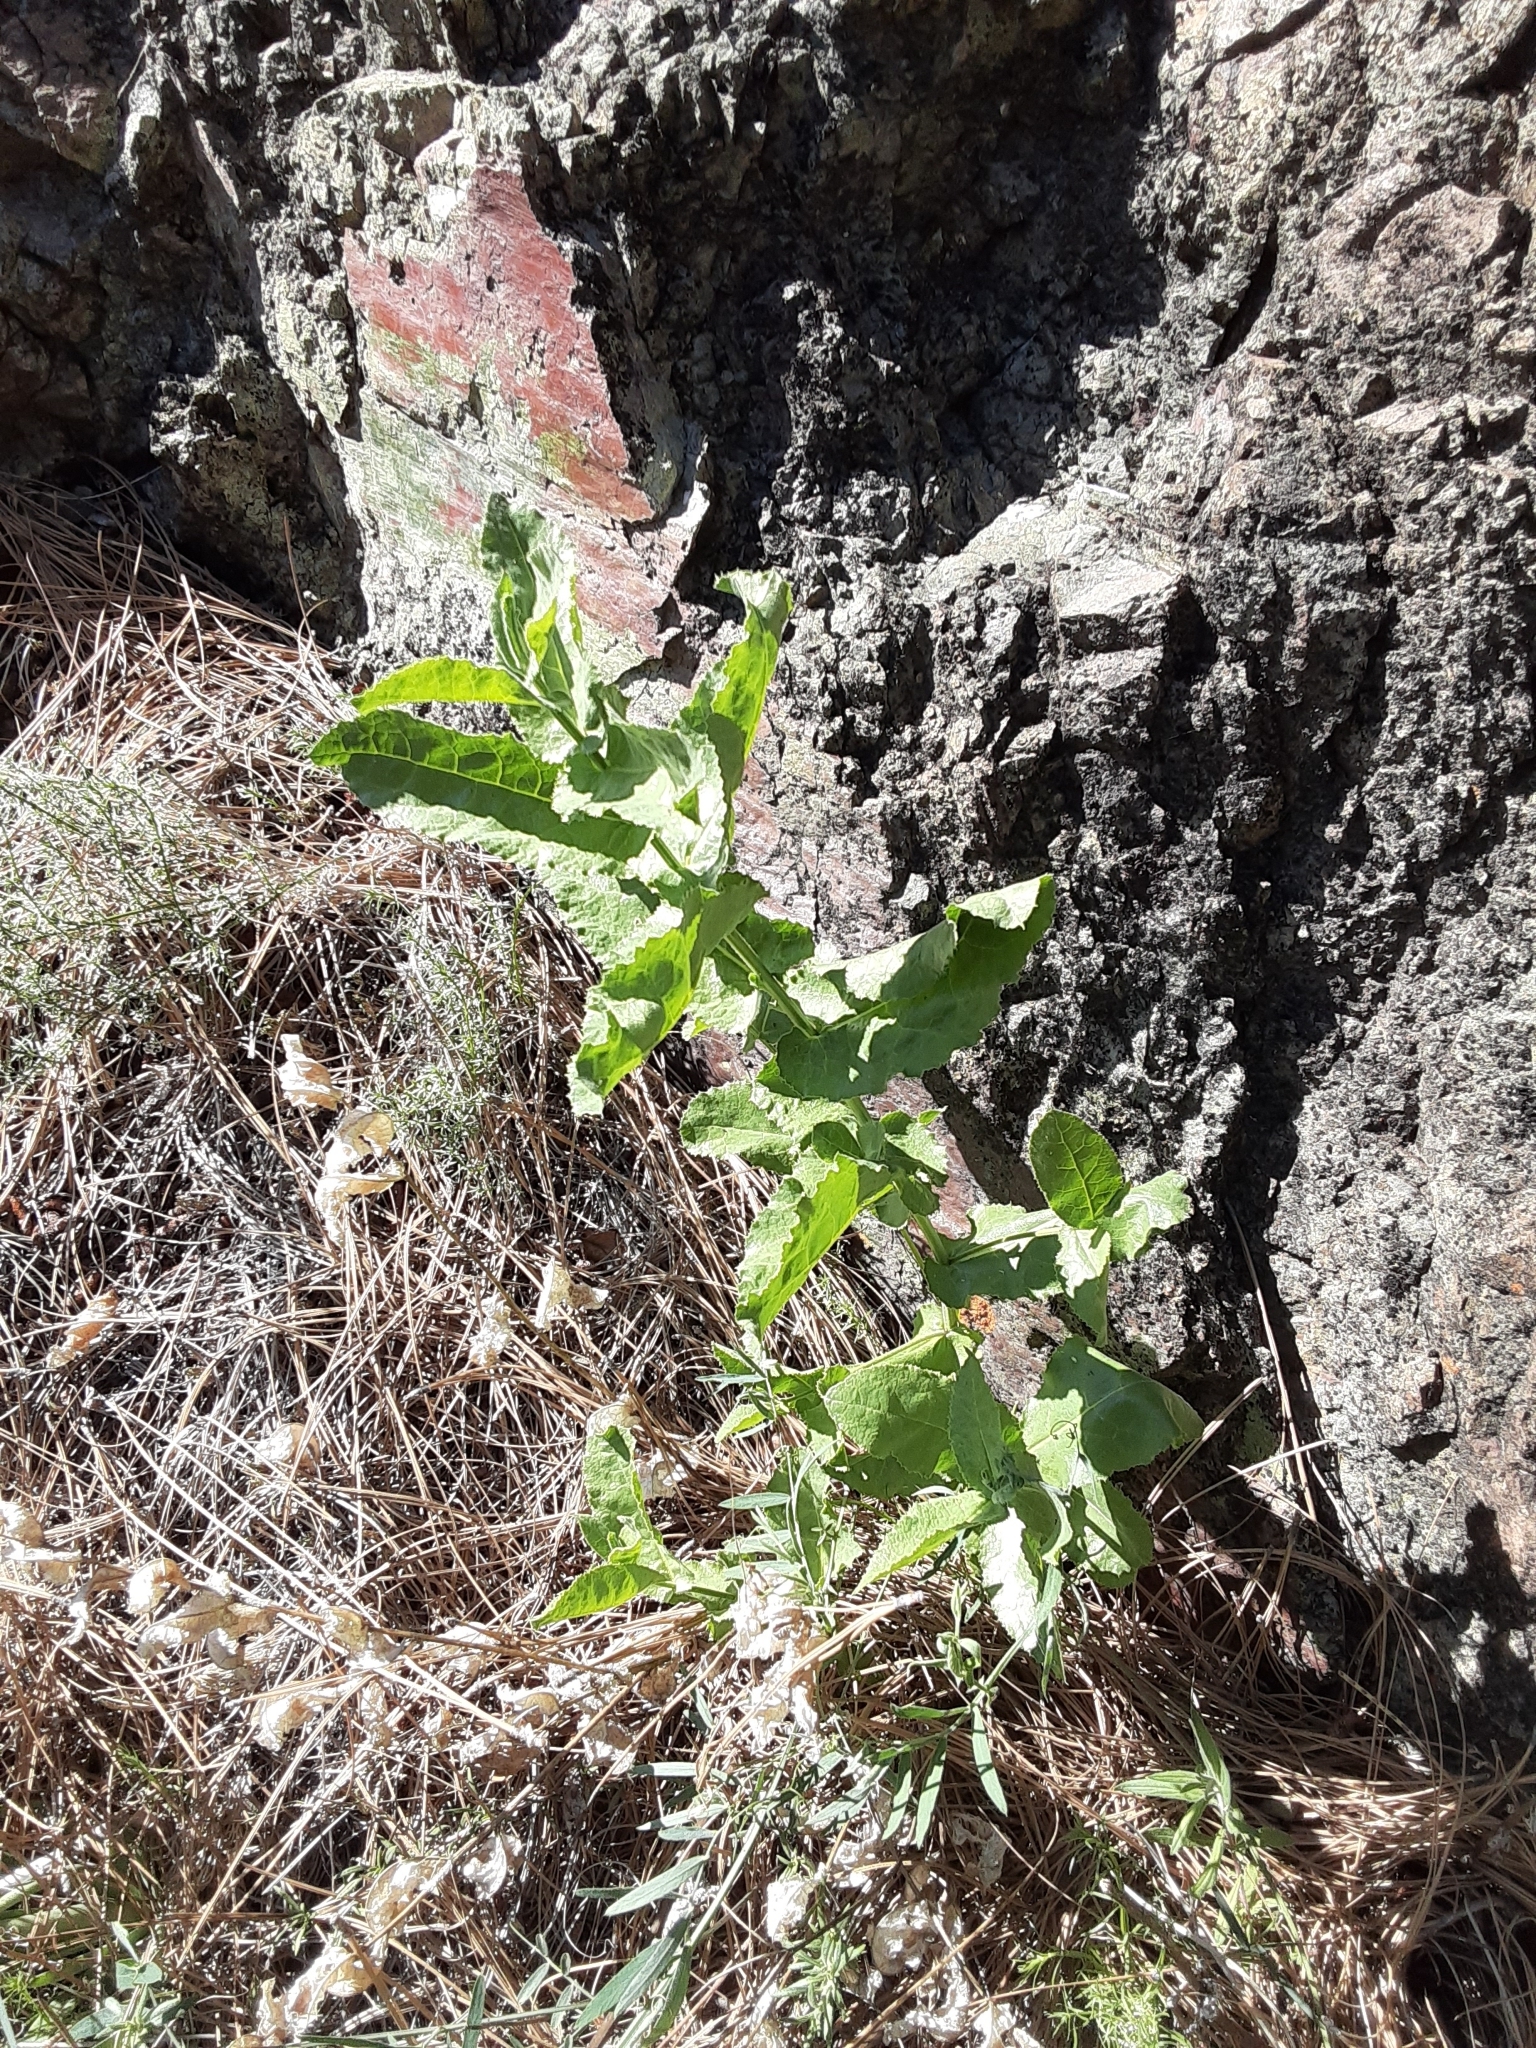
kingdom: Plantae
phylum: Tracheophyta
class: Magnoliopsida
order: Asterales
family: Asteraceae
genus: Acourtia
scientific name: Acourtia microcephala
